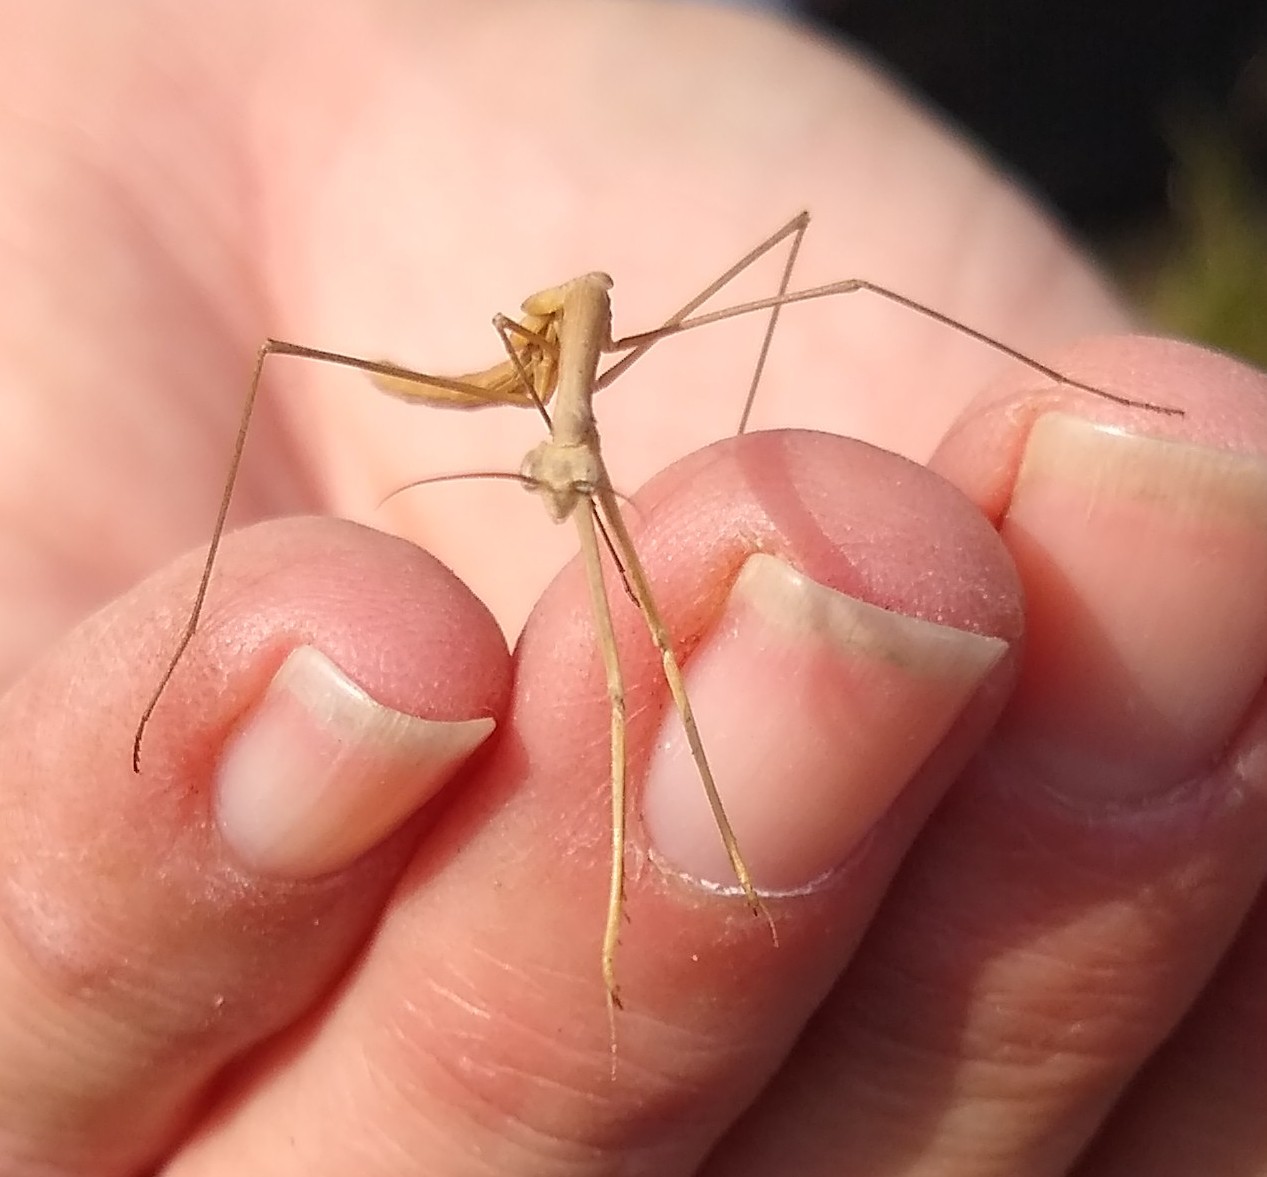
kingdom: Animalia
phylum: Arthropoda
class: Insecta
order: Mantodea
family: Thespidae
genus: Thesprotia
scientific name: Thesprotia graminis
